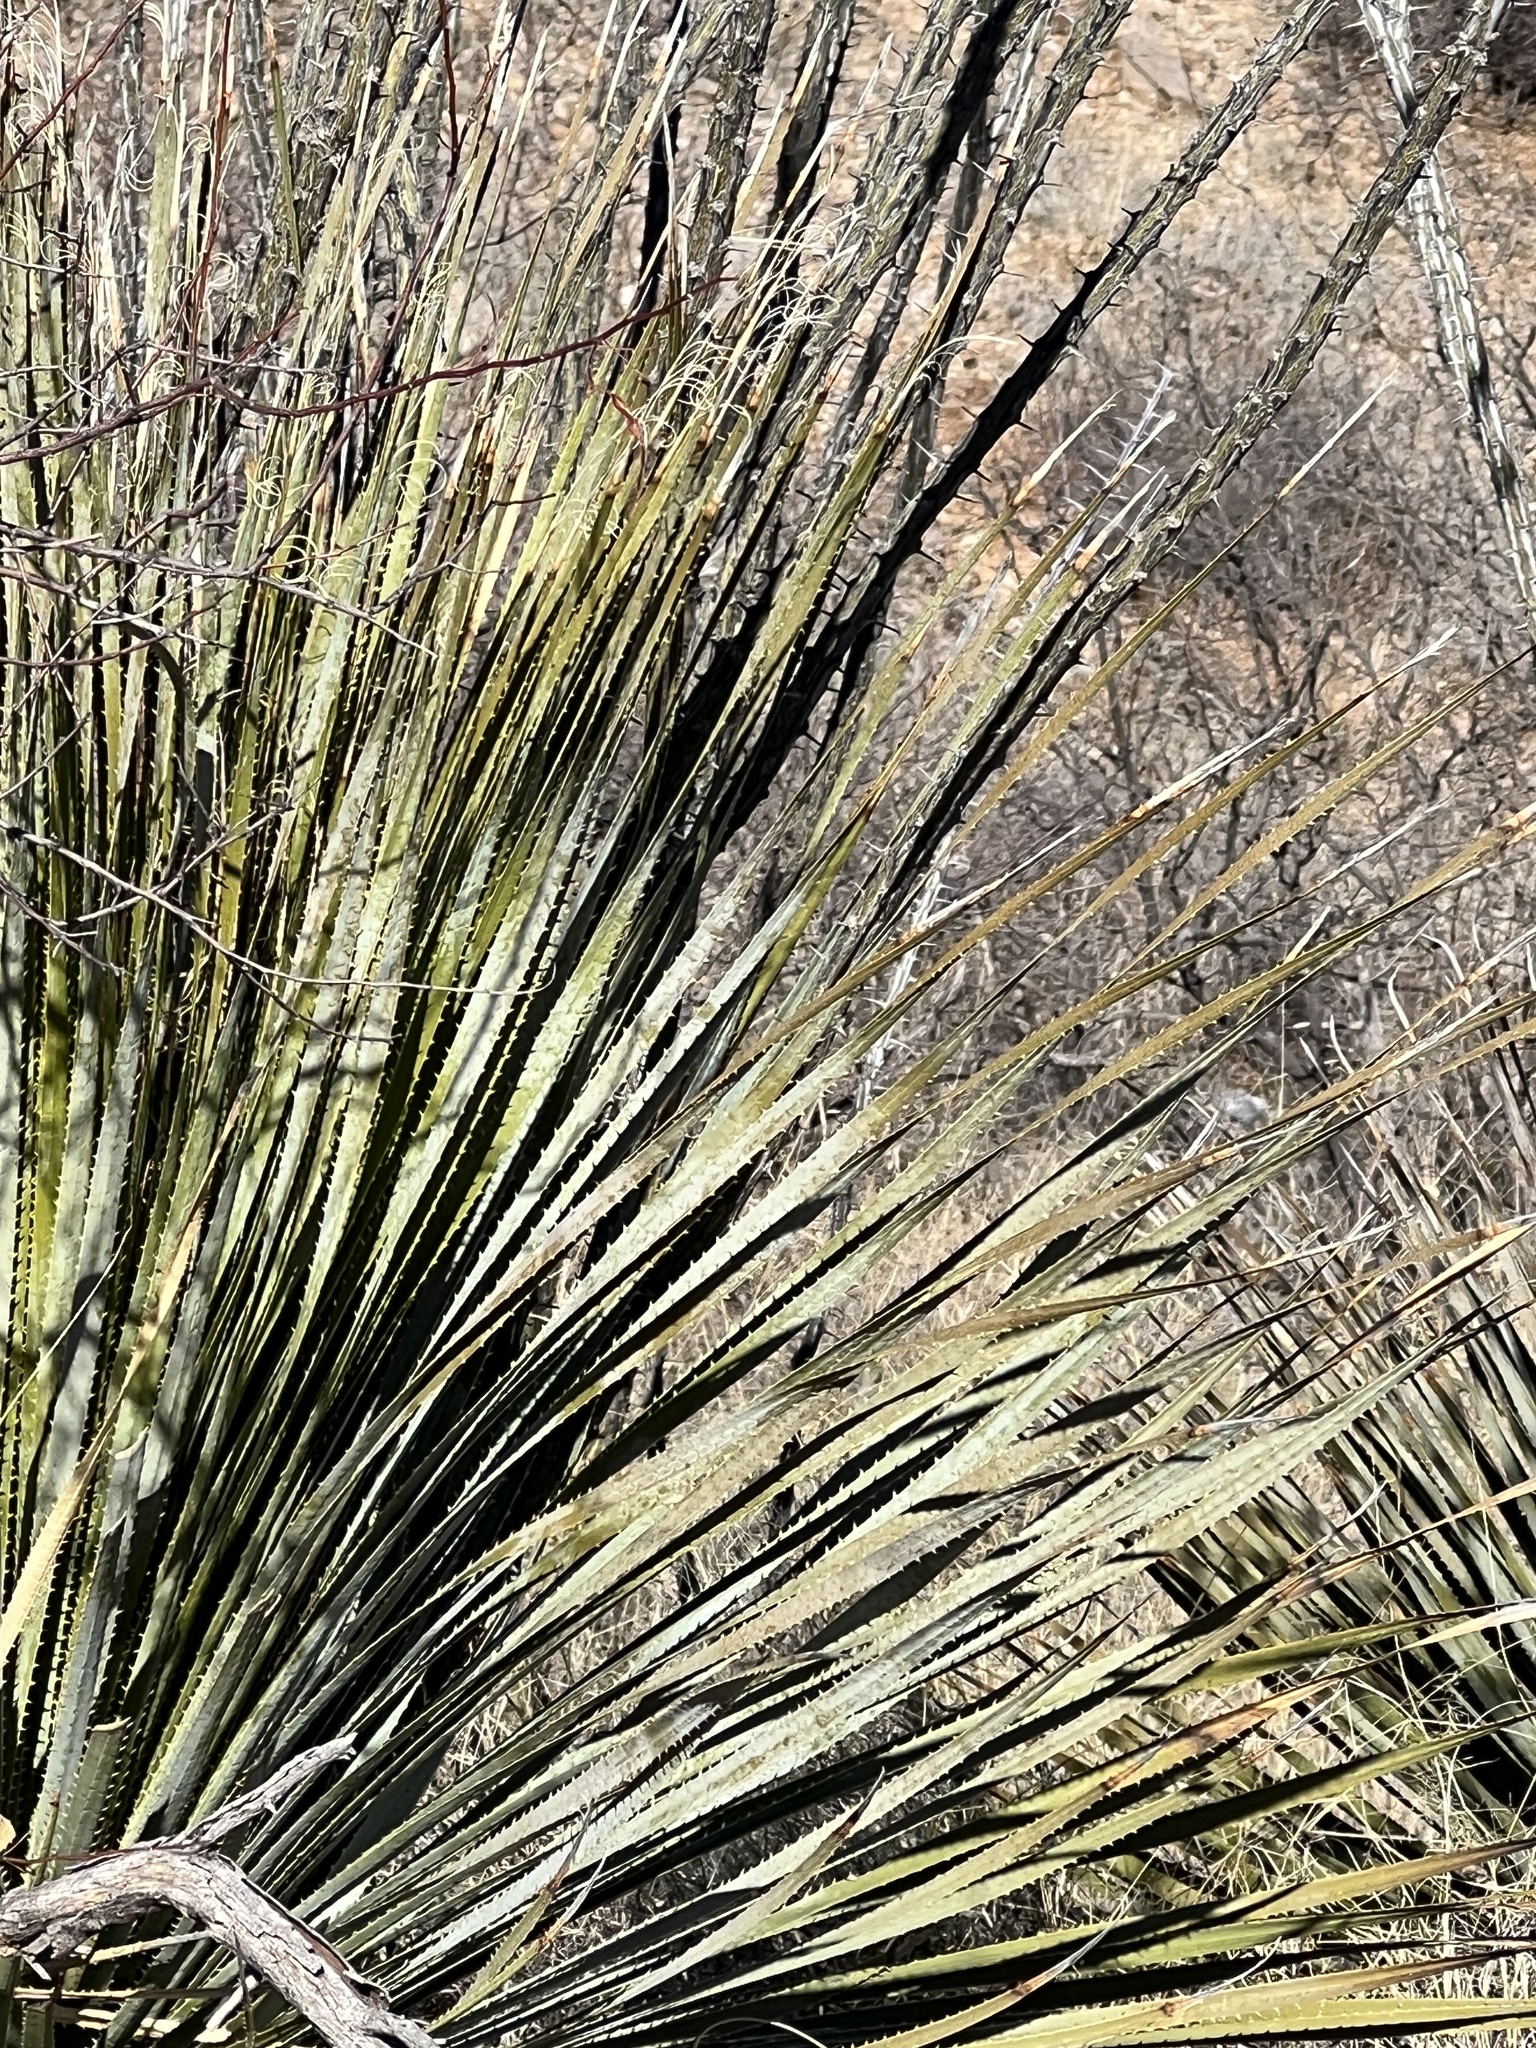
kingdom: Plantae
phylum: Tracheophyta
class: Liliopsida
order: Asparagales
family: Asparagaceae
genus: Dasylirion
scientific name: Dasylirion wheeleri
